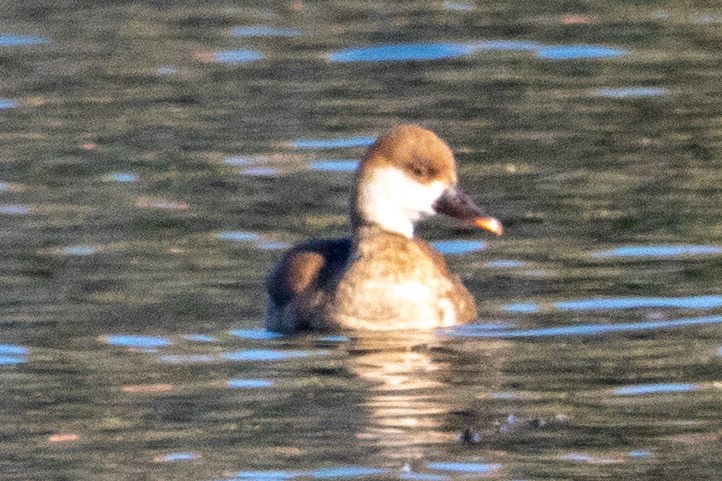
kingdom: Animalia
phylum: Chordata
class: Aves
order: Anseriformes
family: Anatidae
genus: Netta
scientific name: Netta rufina
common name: Red-crested pochard
